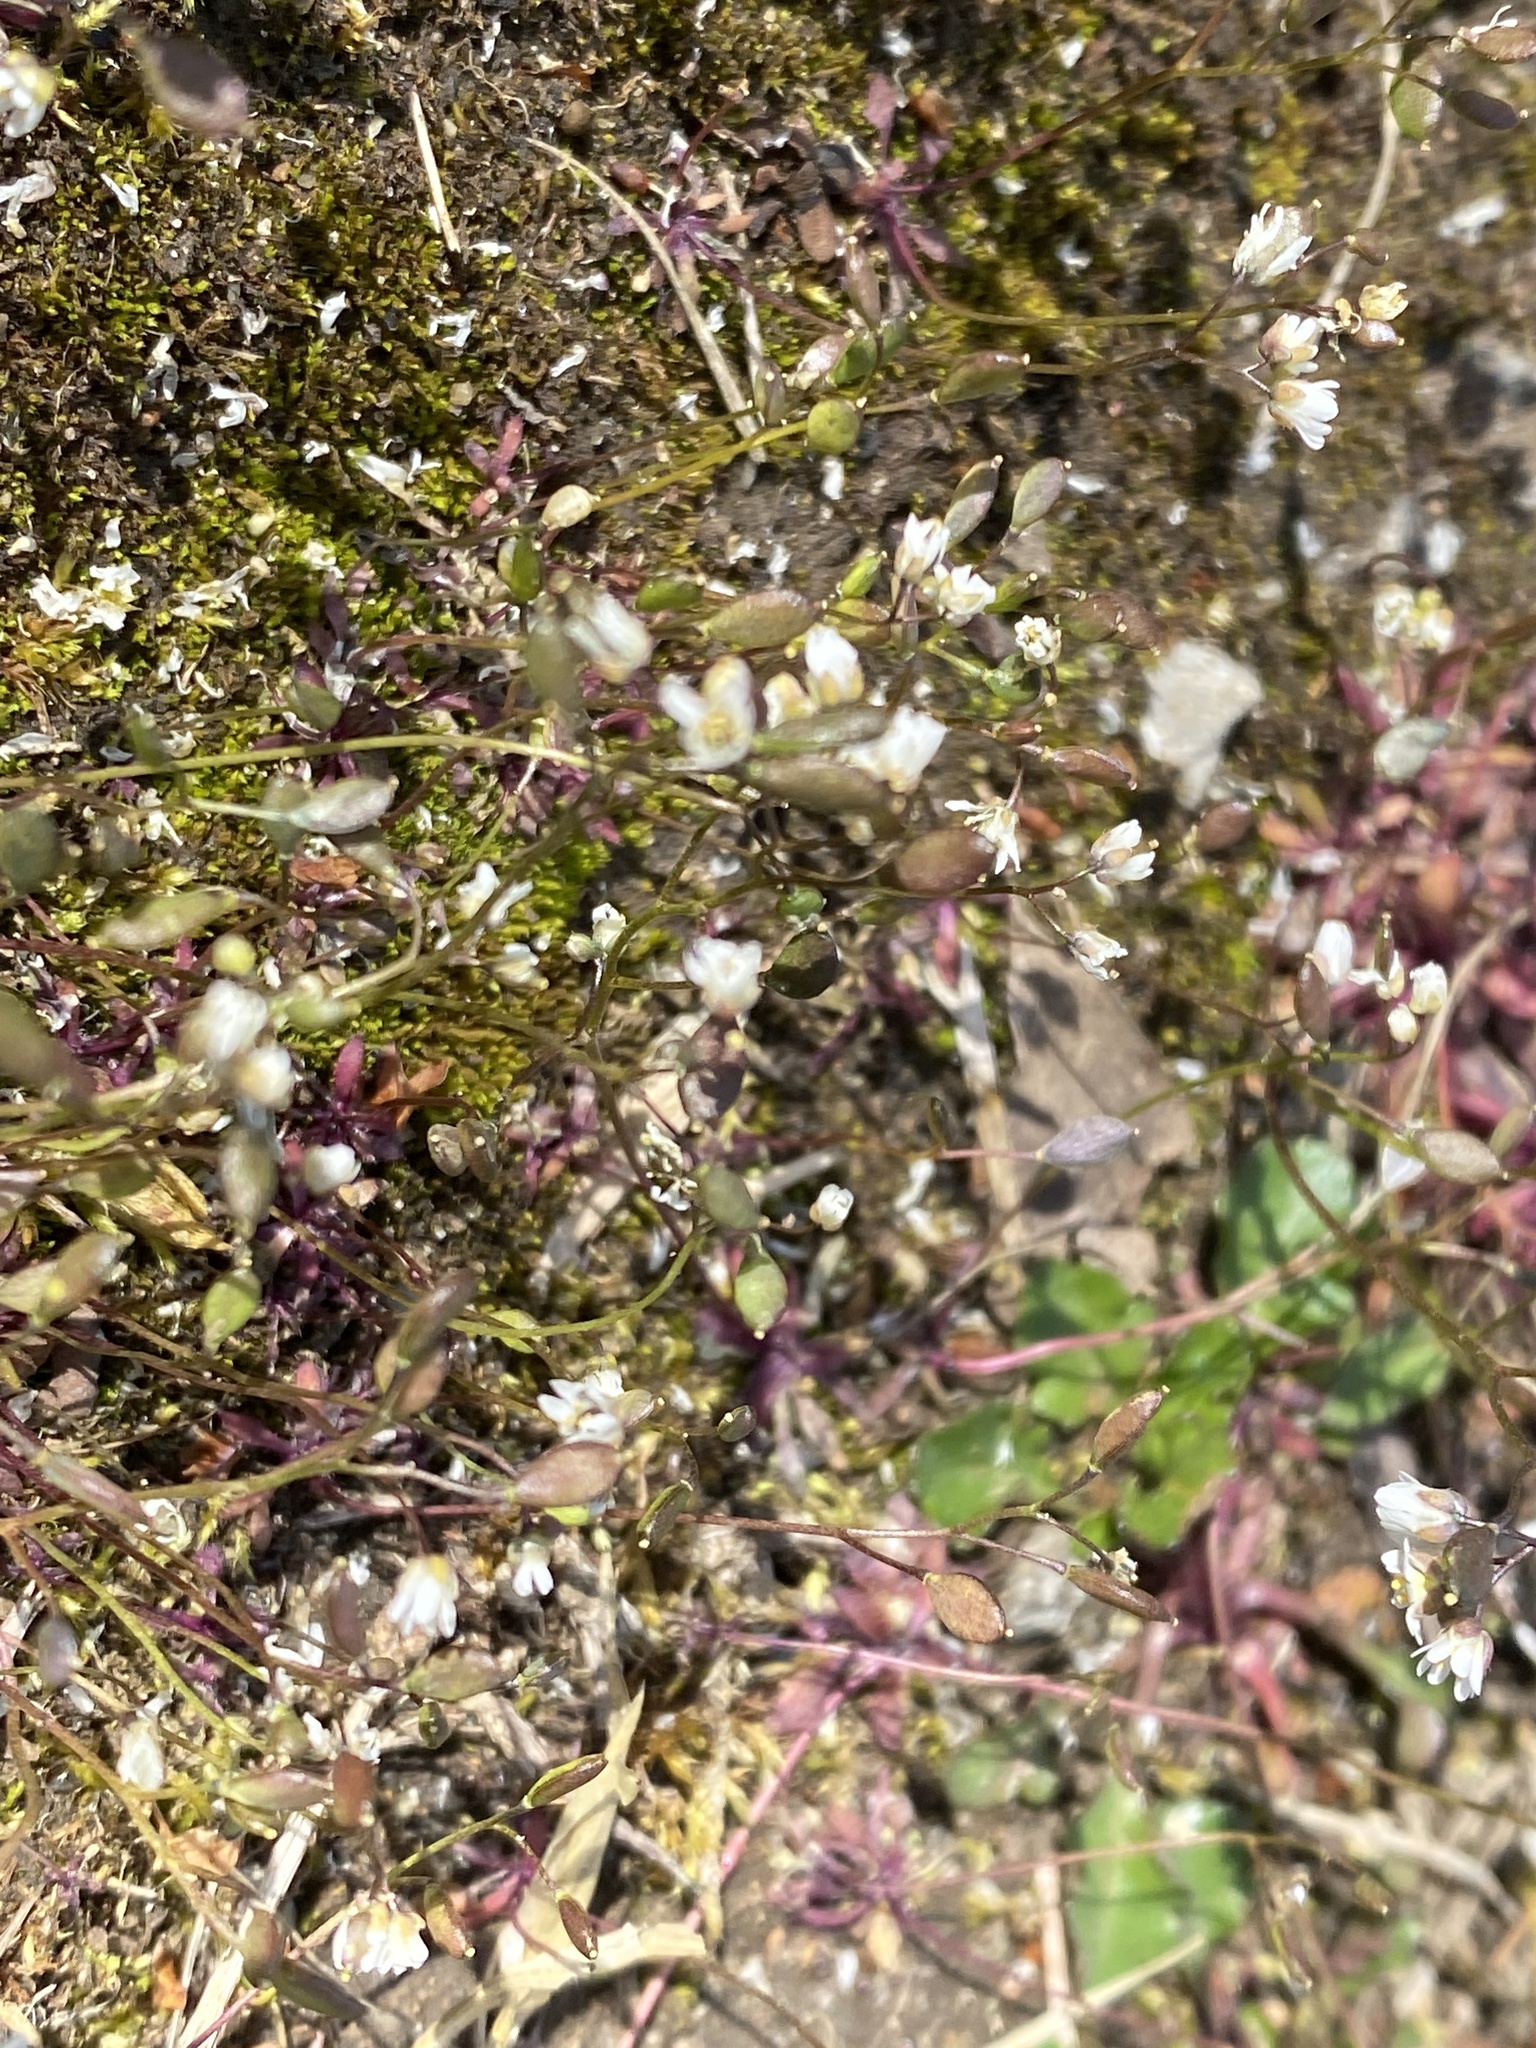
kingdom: Plantae
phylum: Tracheophyta
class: Magnoliopsida
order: Brassicales
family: Brassicaceae
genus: Draba
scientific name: Draba verna
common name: Spring draba
